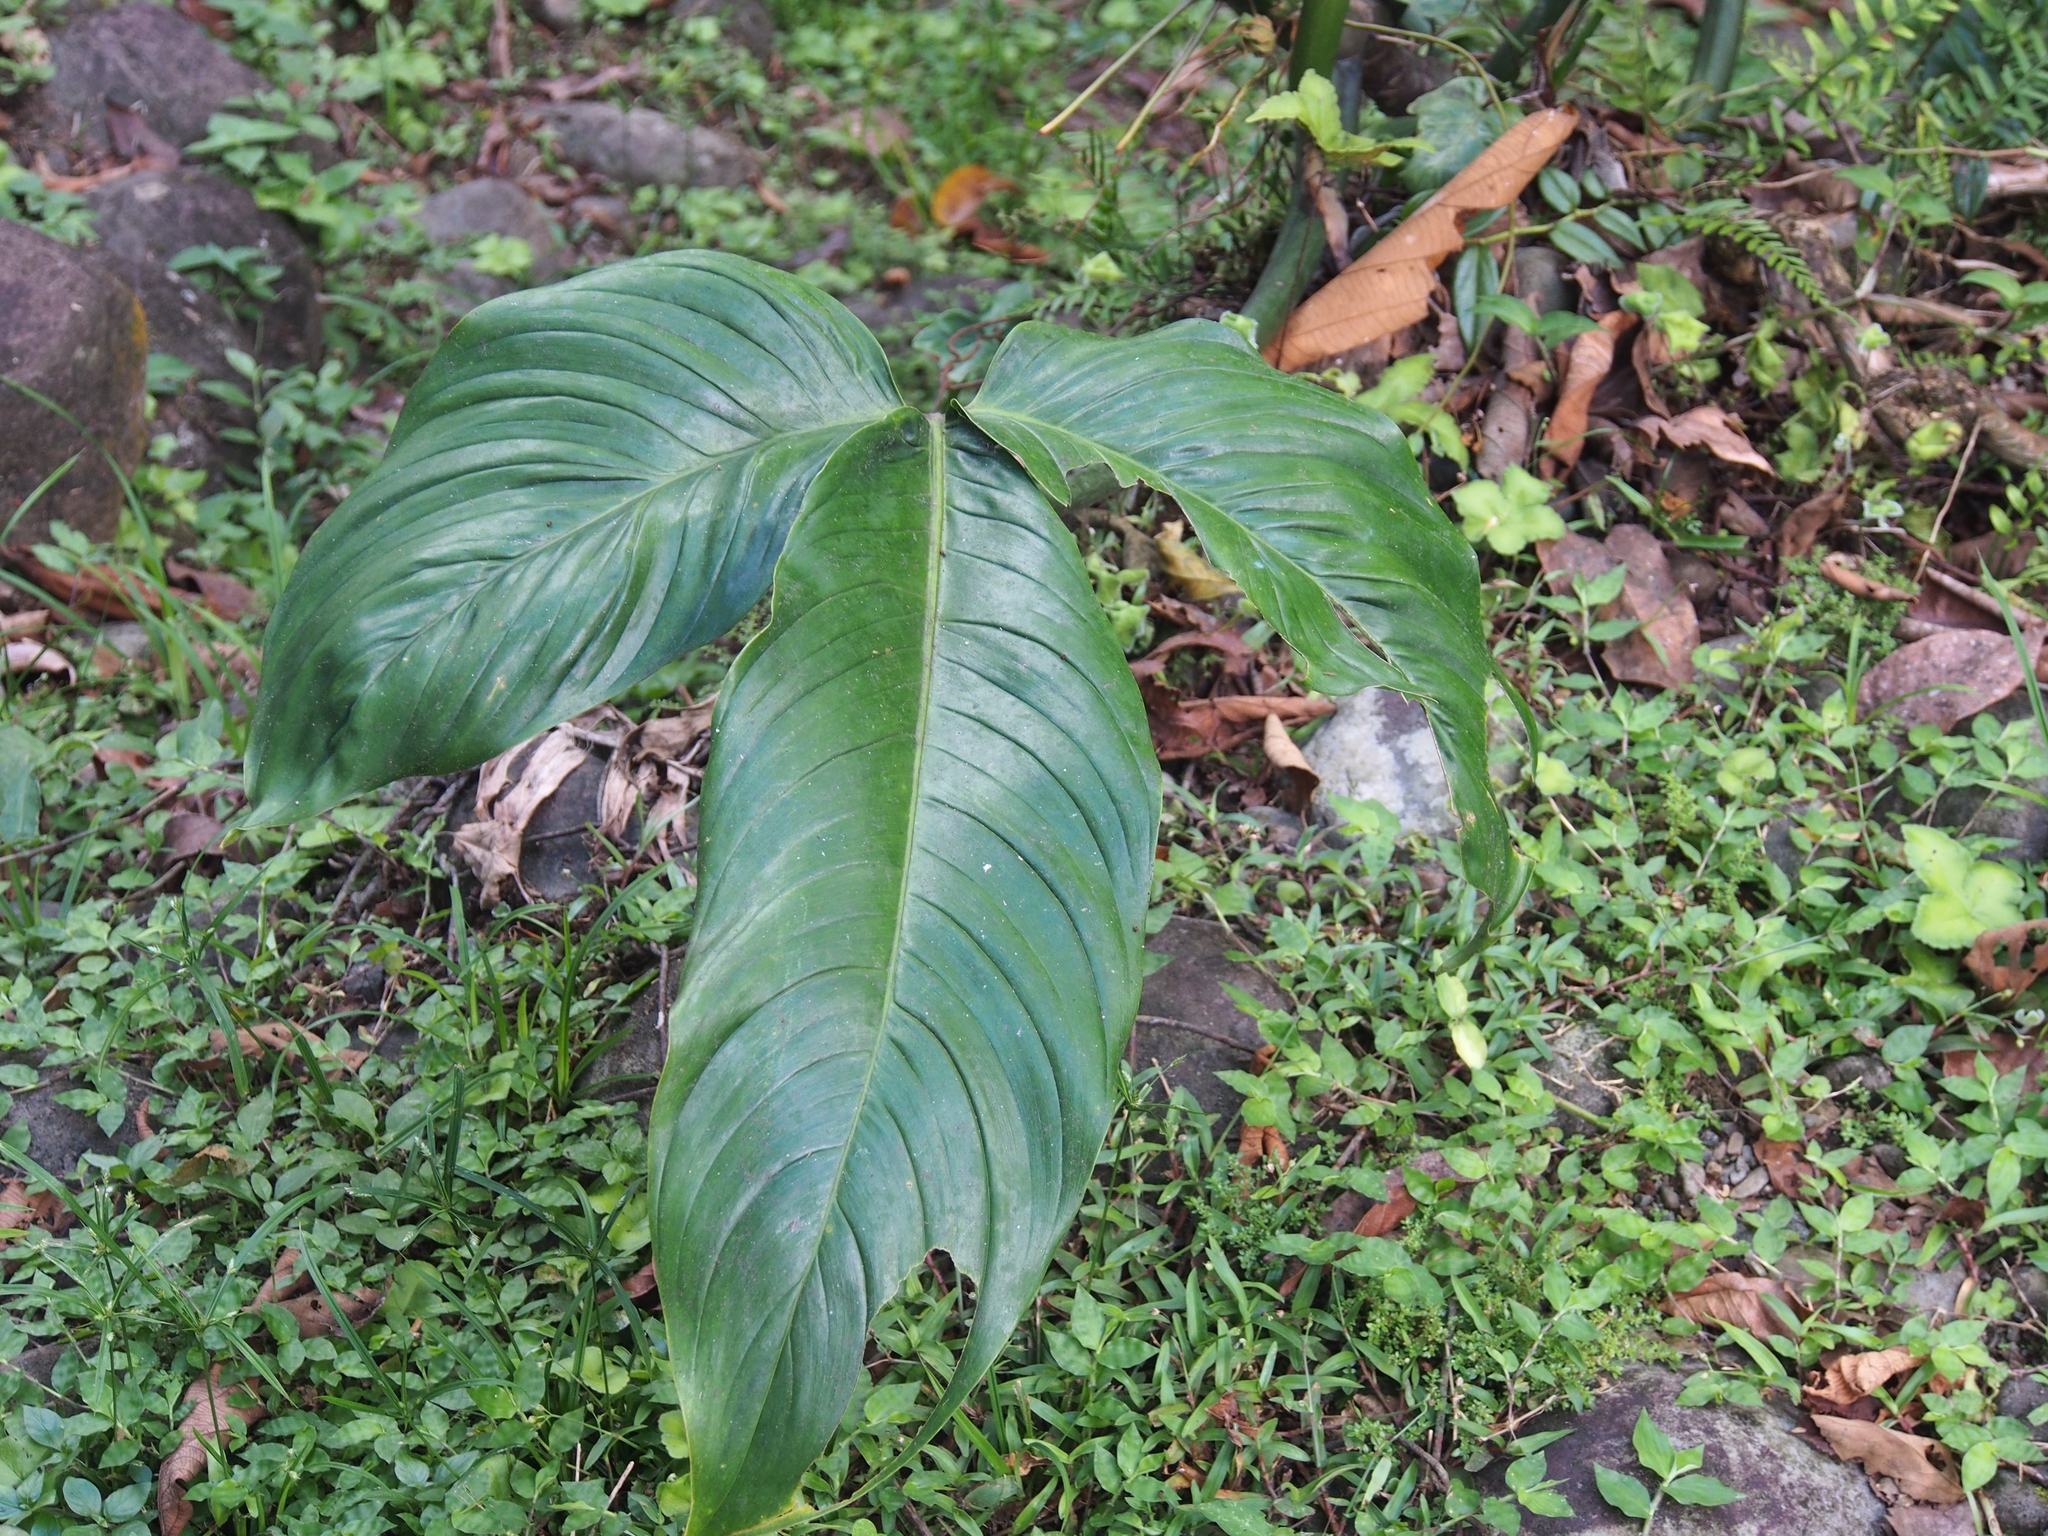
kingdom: Plantae
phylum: Tracheophyta
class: Liliopsida
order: Alismatales
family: Araceae
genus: Philodendron
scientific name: Philodendron tripartitum
